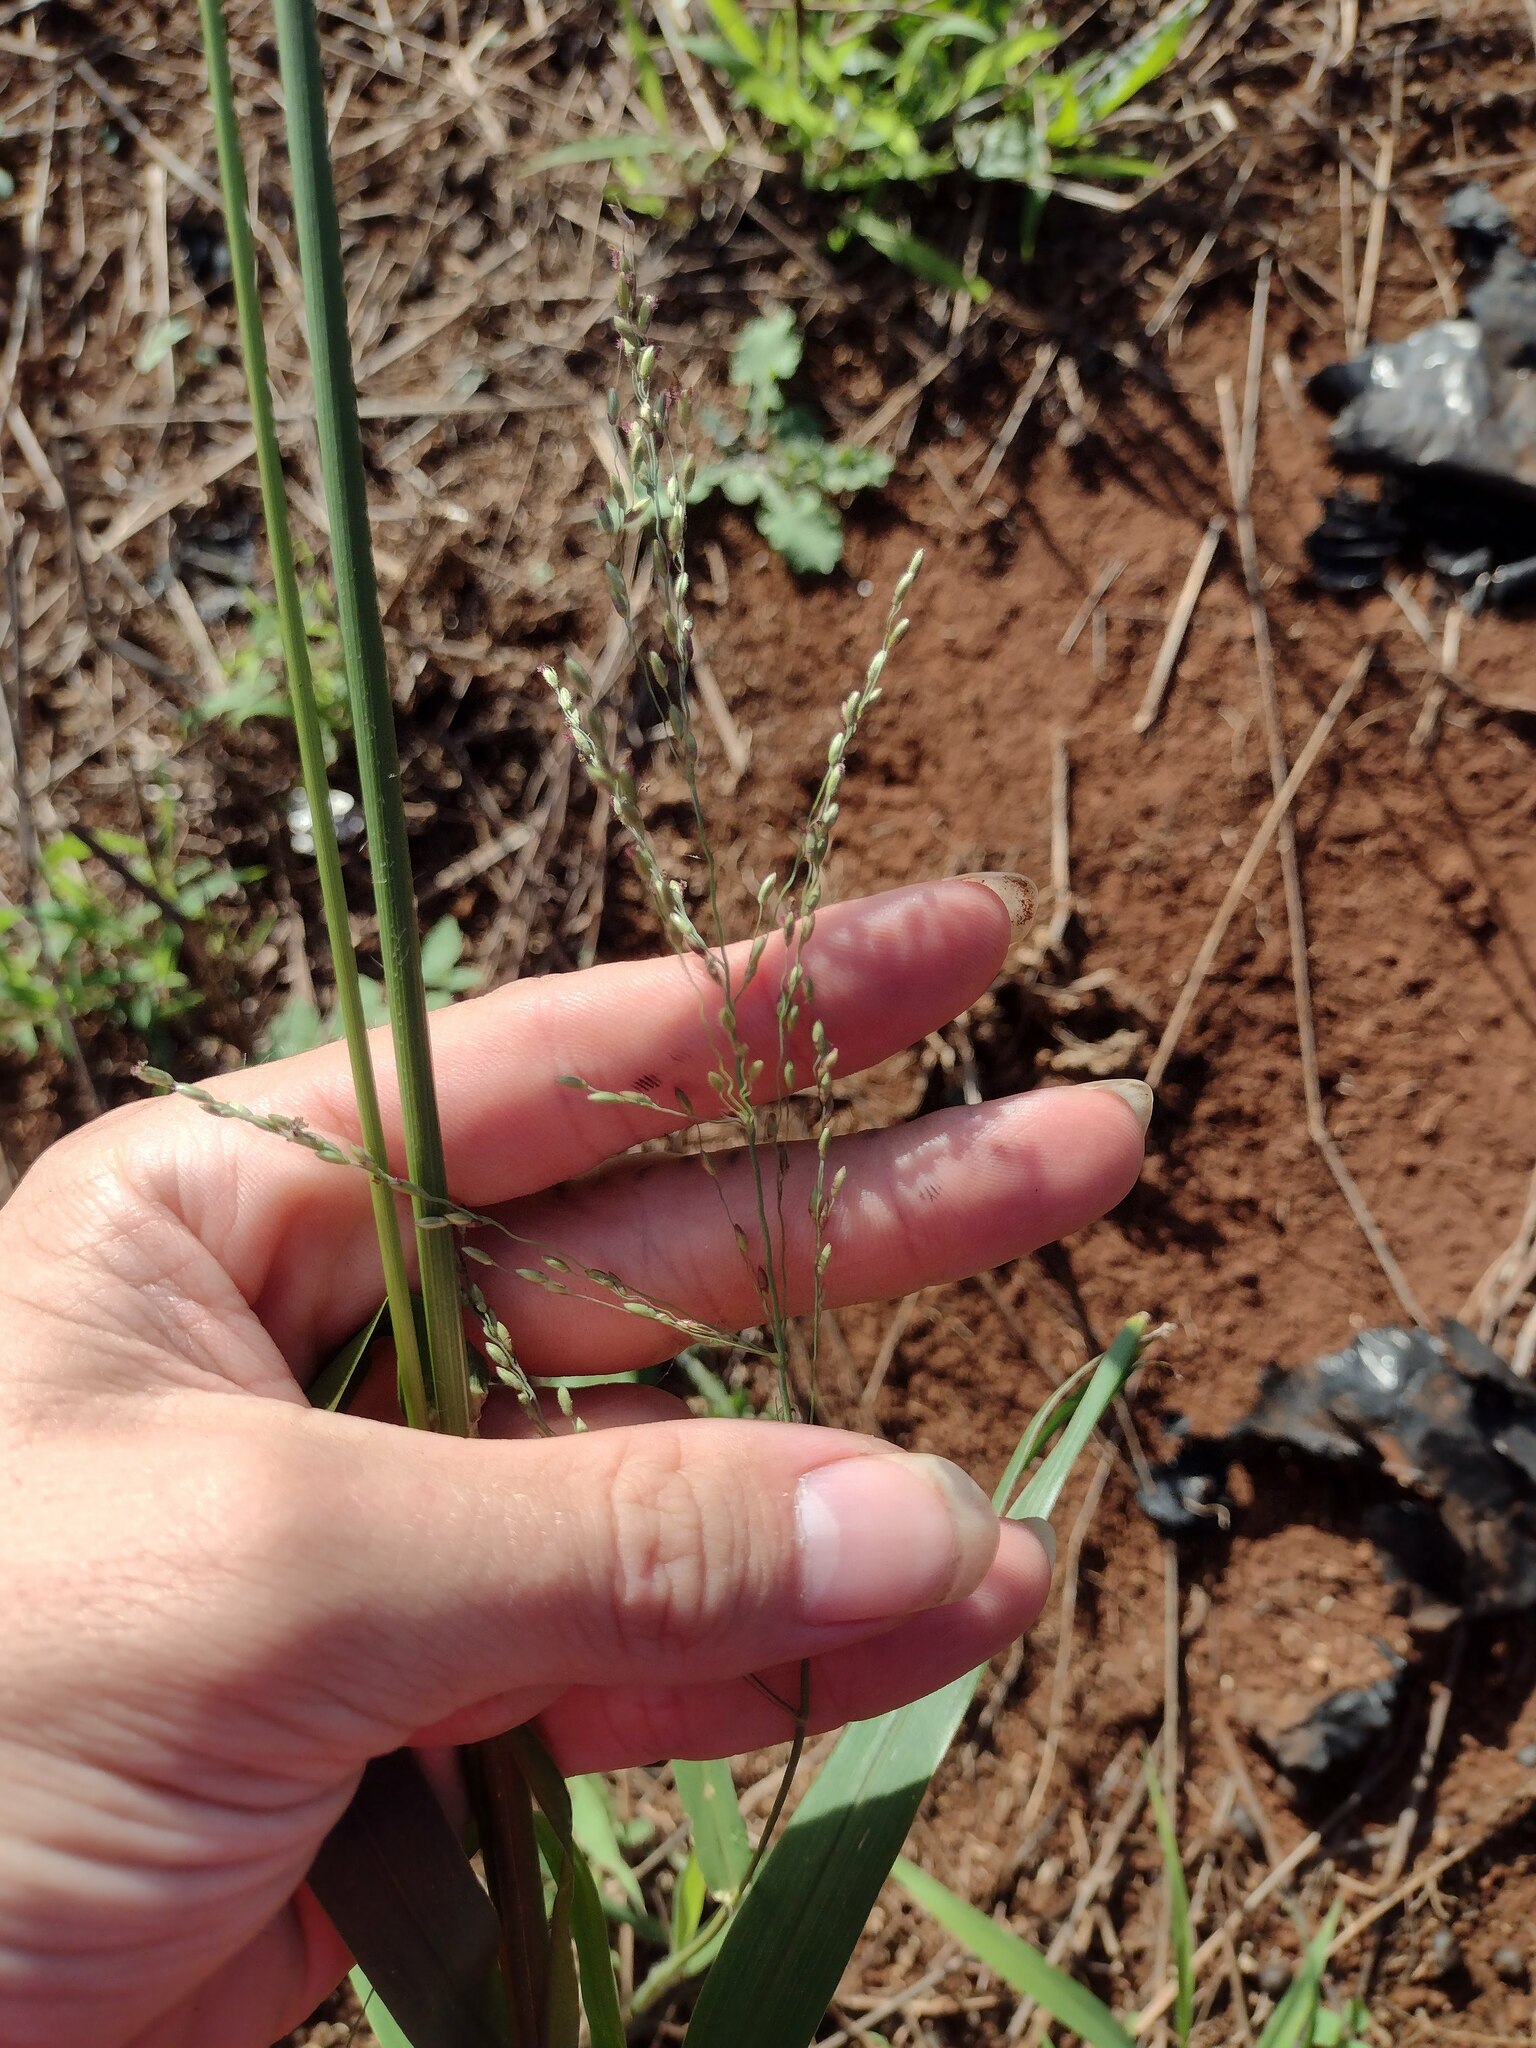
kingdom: Plantae
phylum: Tracheophyta
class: Liliopsida
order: Poales
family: Poaceae
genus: Megathyrsus
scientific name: Megathyrsus maximus
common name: Guineagrass
